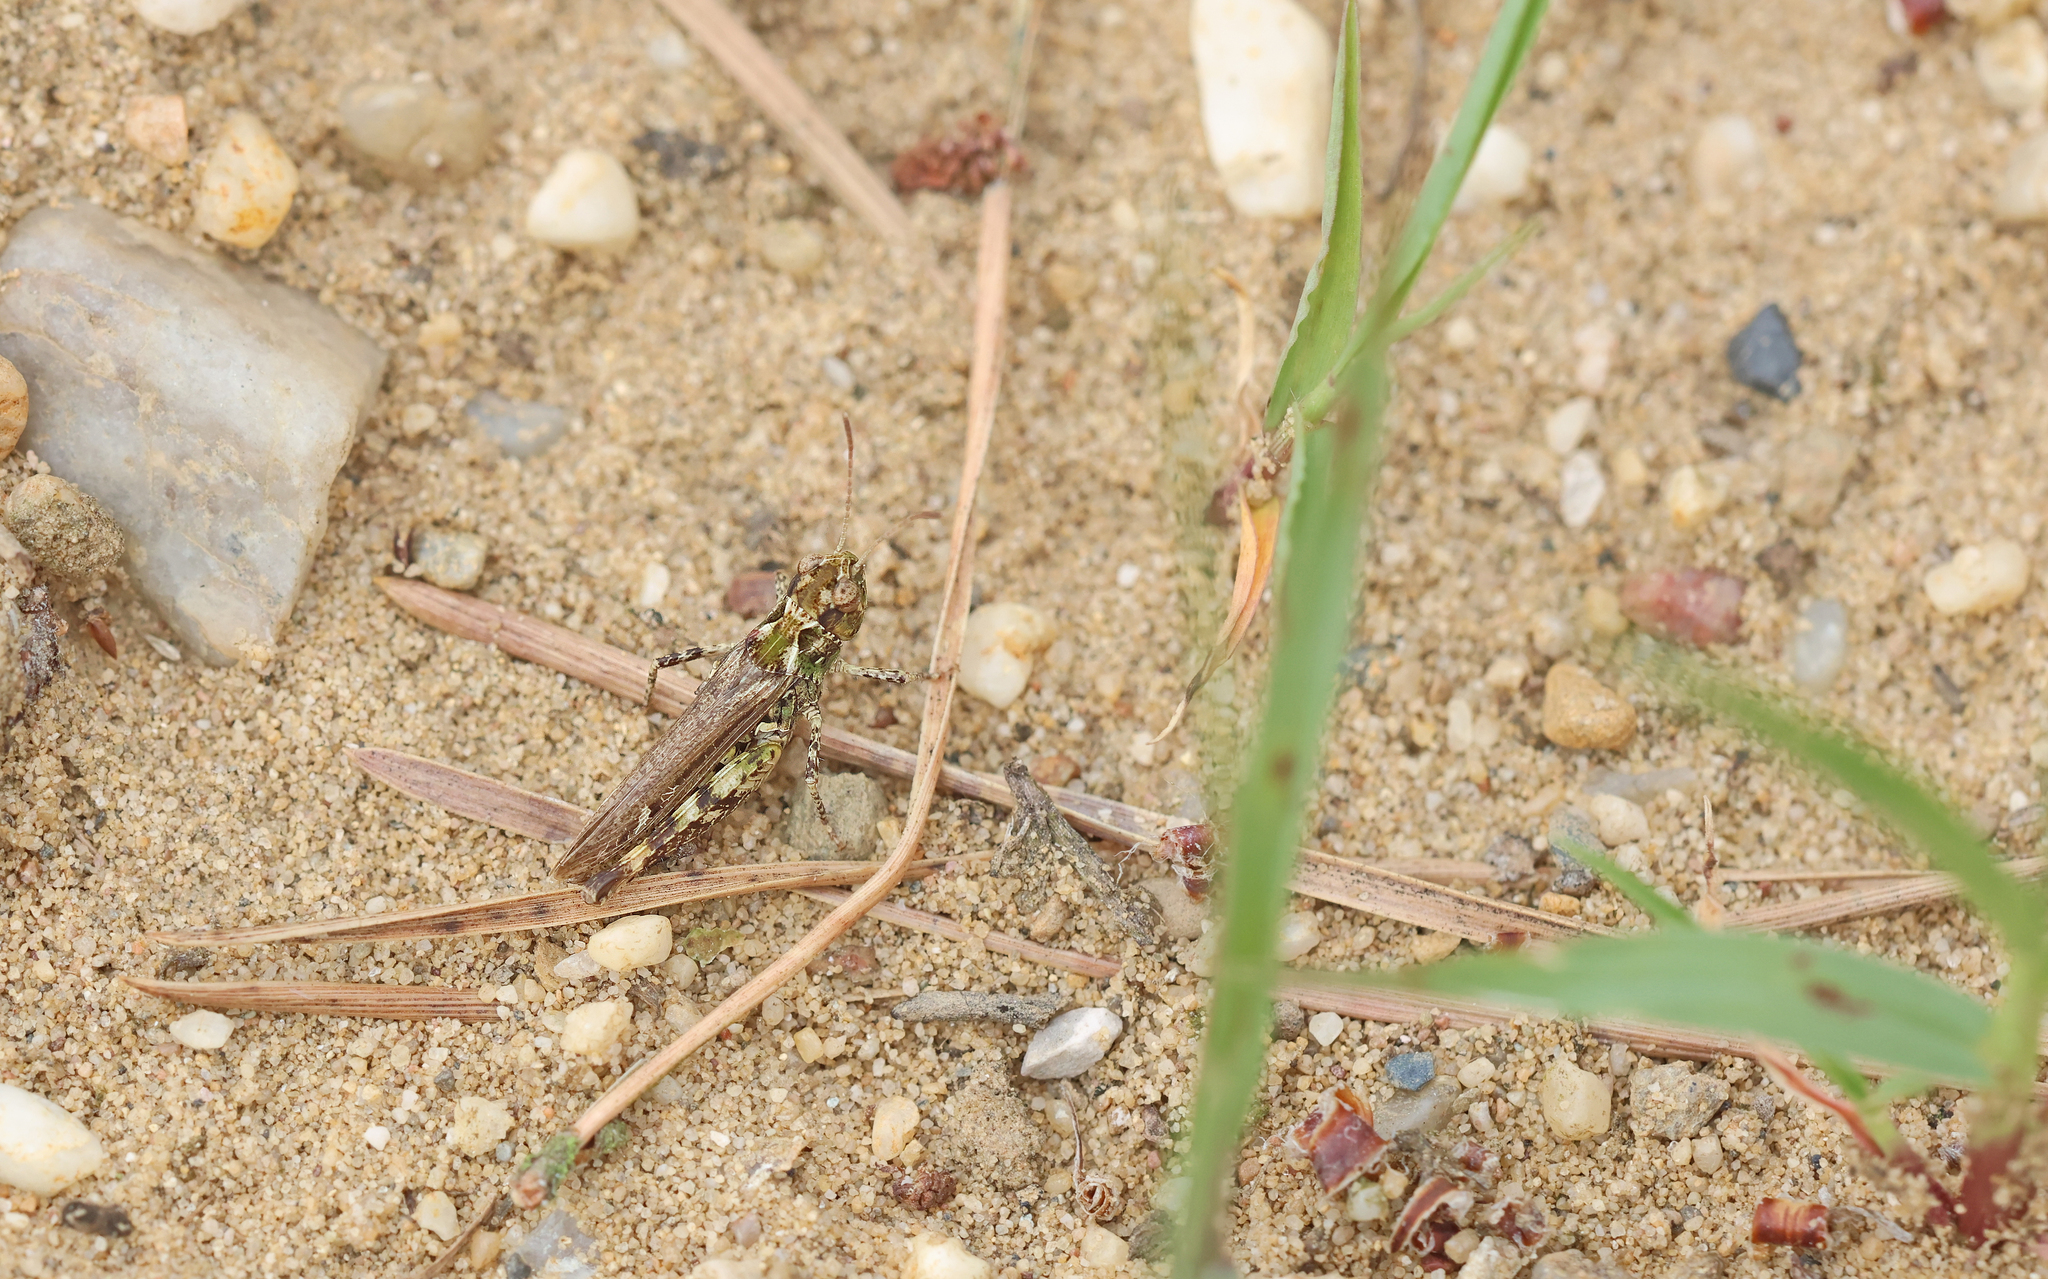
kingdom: Animalia
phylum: Arthropoda
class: Insecta
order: Orthoptera
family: Acrididae
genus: Myrmeleotettix
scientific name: Myrmeleotettix maculatus
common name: Mottled grasshopper
